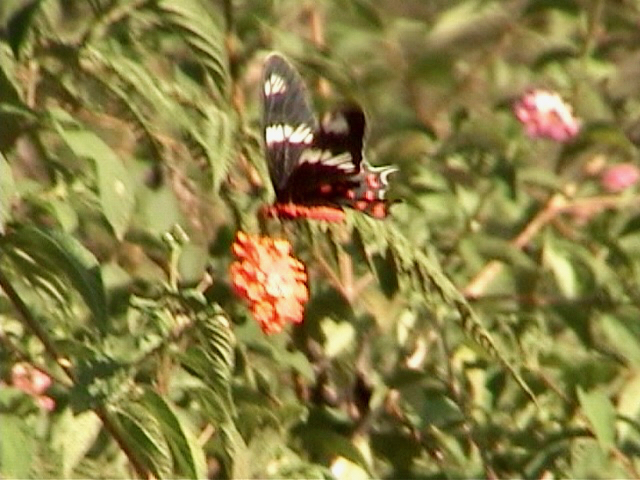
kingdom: Animalia
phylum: Arthropoda
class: Insecta
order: Lepidoptera
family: Papilionidae
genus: Pachliopta
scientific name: Pachliopta hector
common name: Crimson rose
